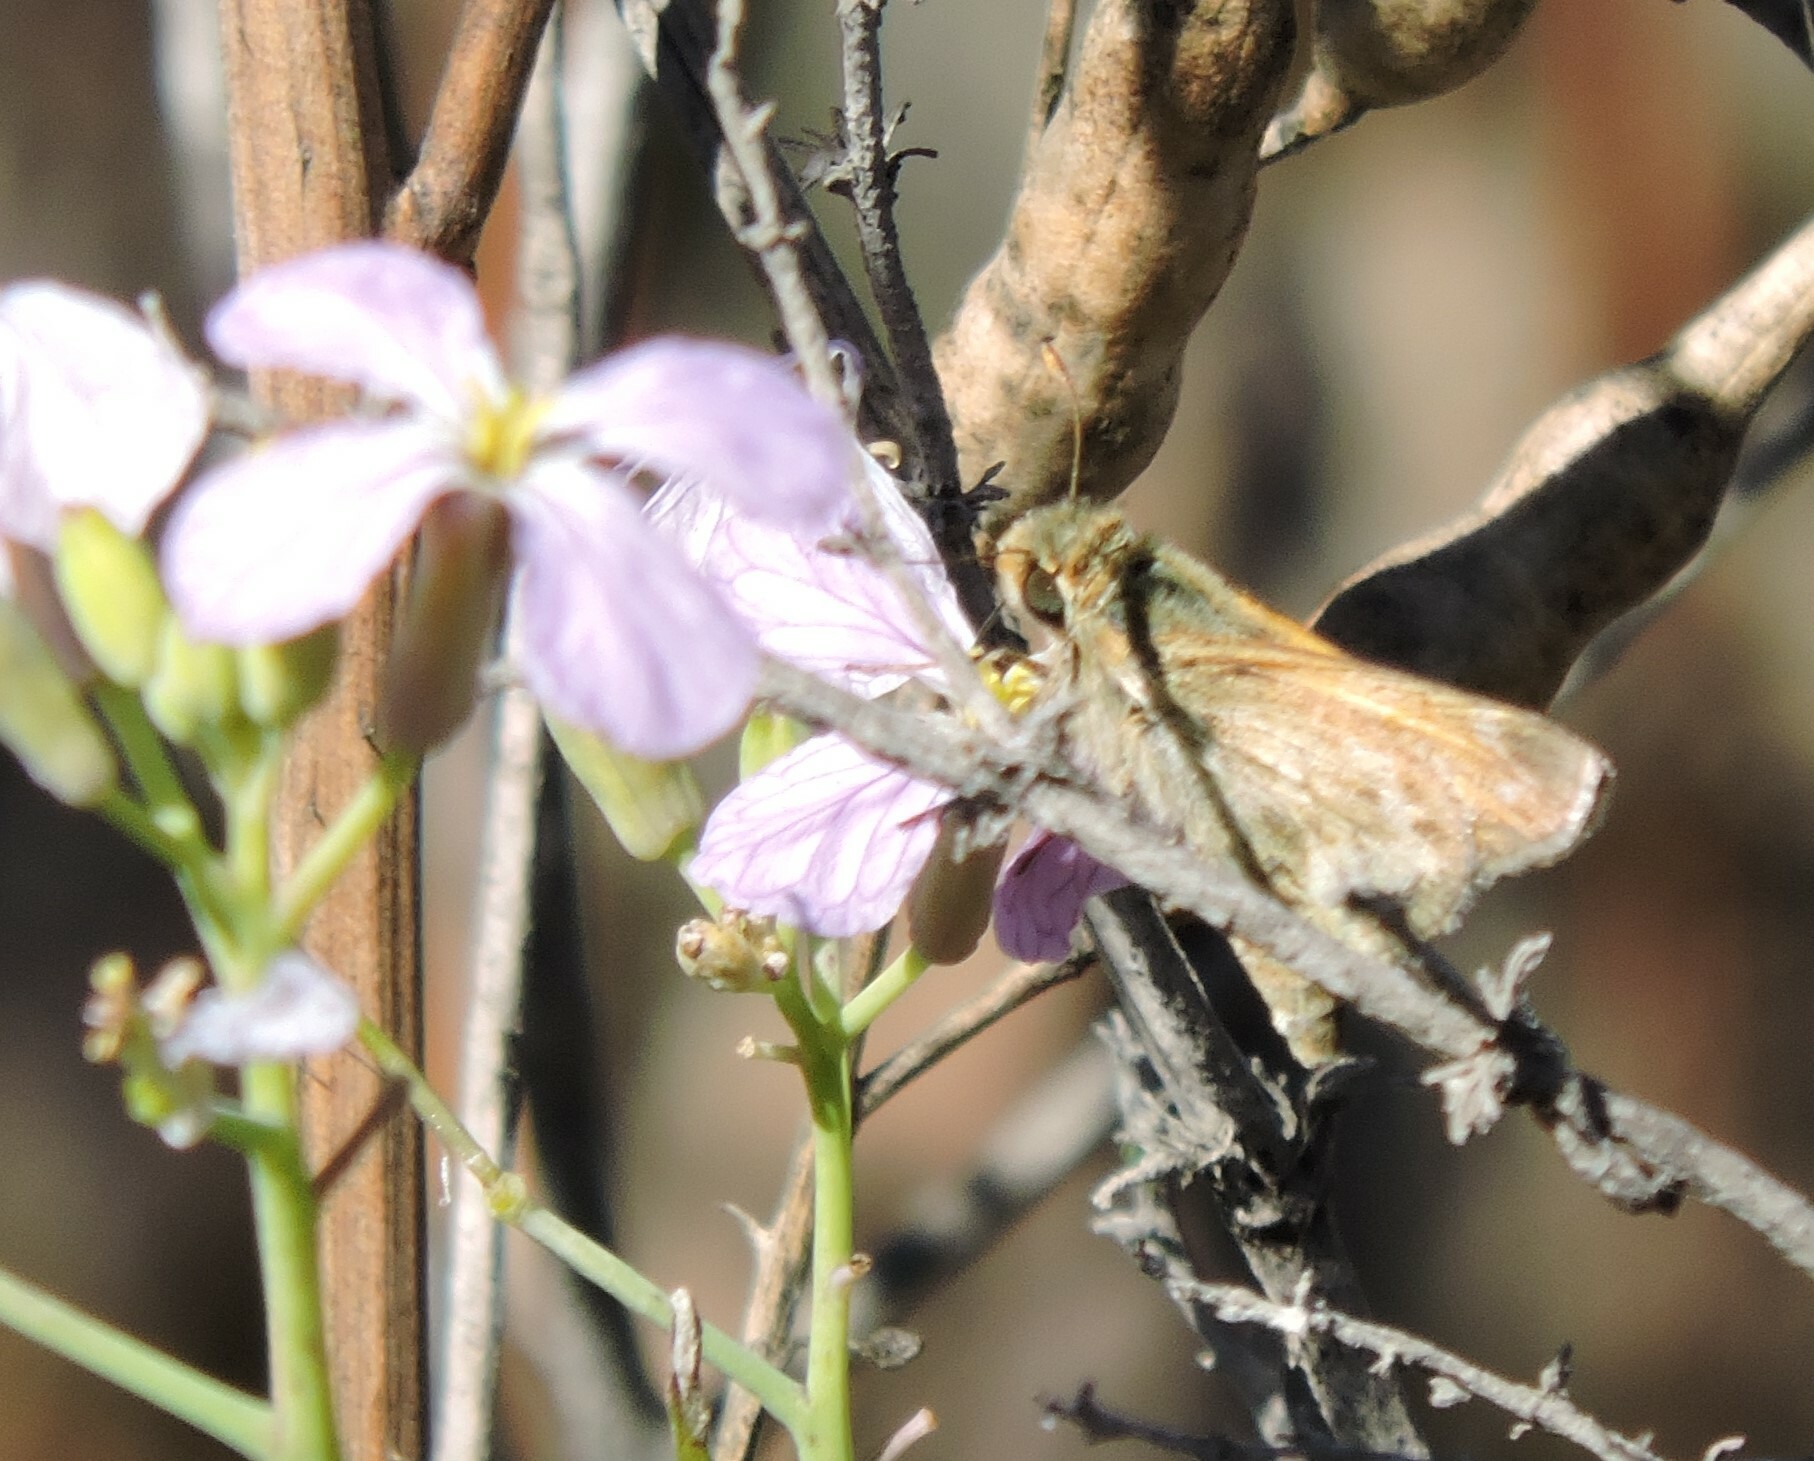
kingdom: Animalia
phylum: Arthropoda
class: Insecta
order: Lepidoptera
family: Hesperiidae
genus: Ochlodes
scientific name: Ochlodes sylvanoides
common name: Woodland skipper
